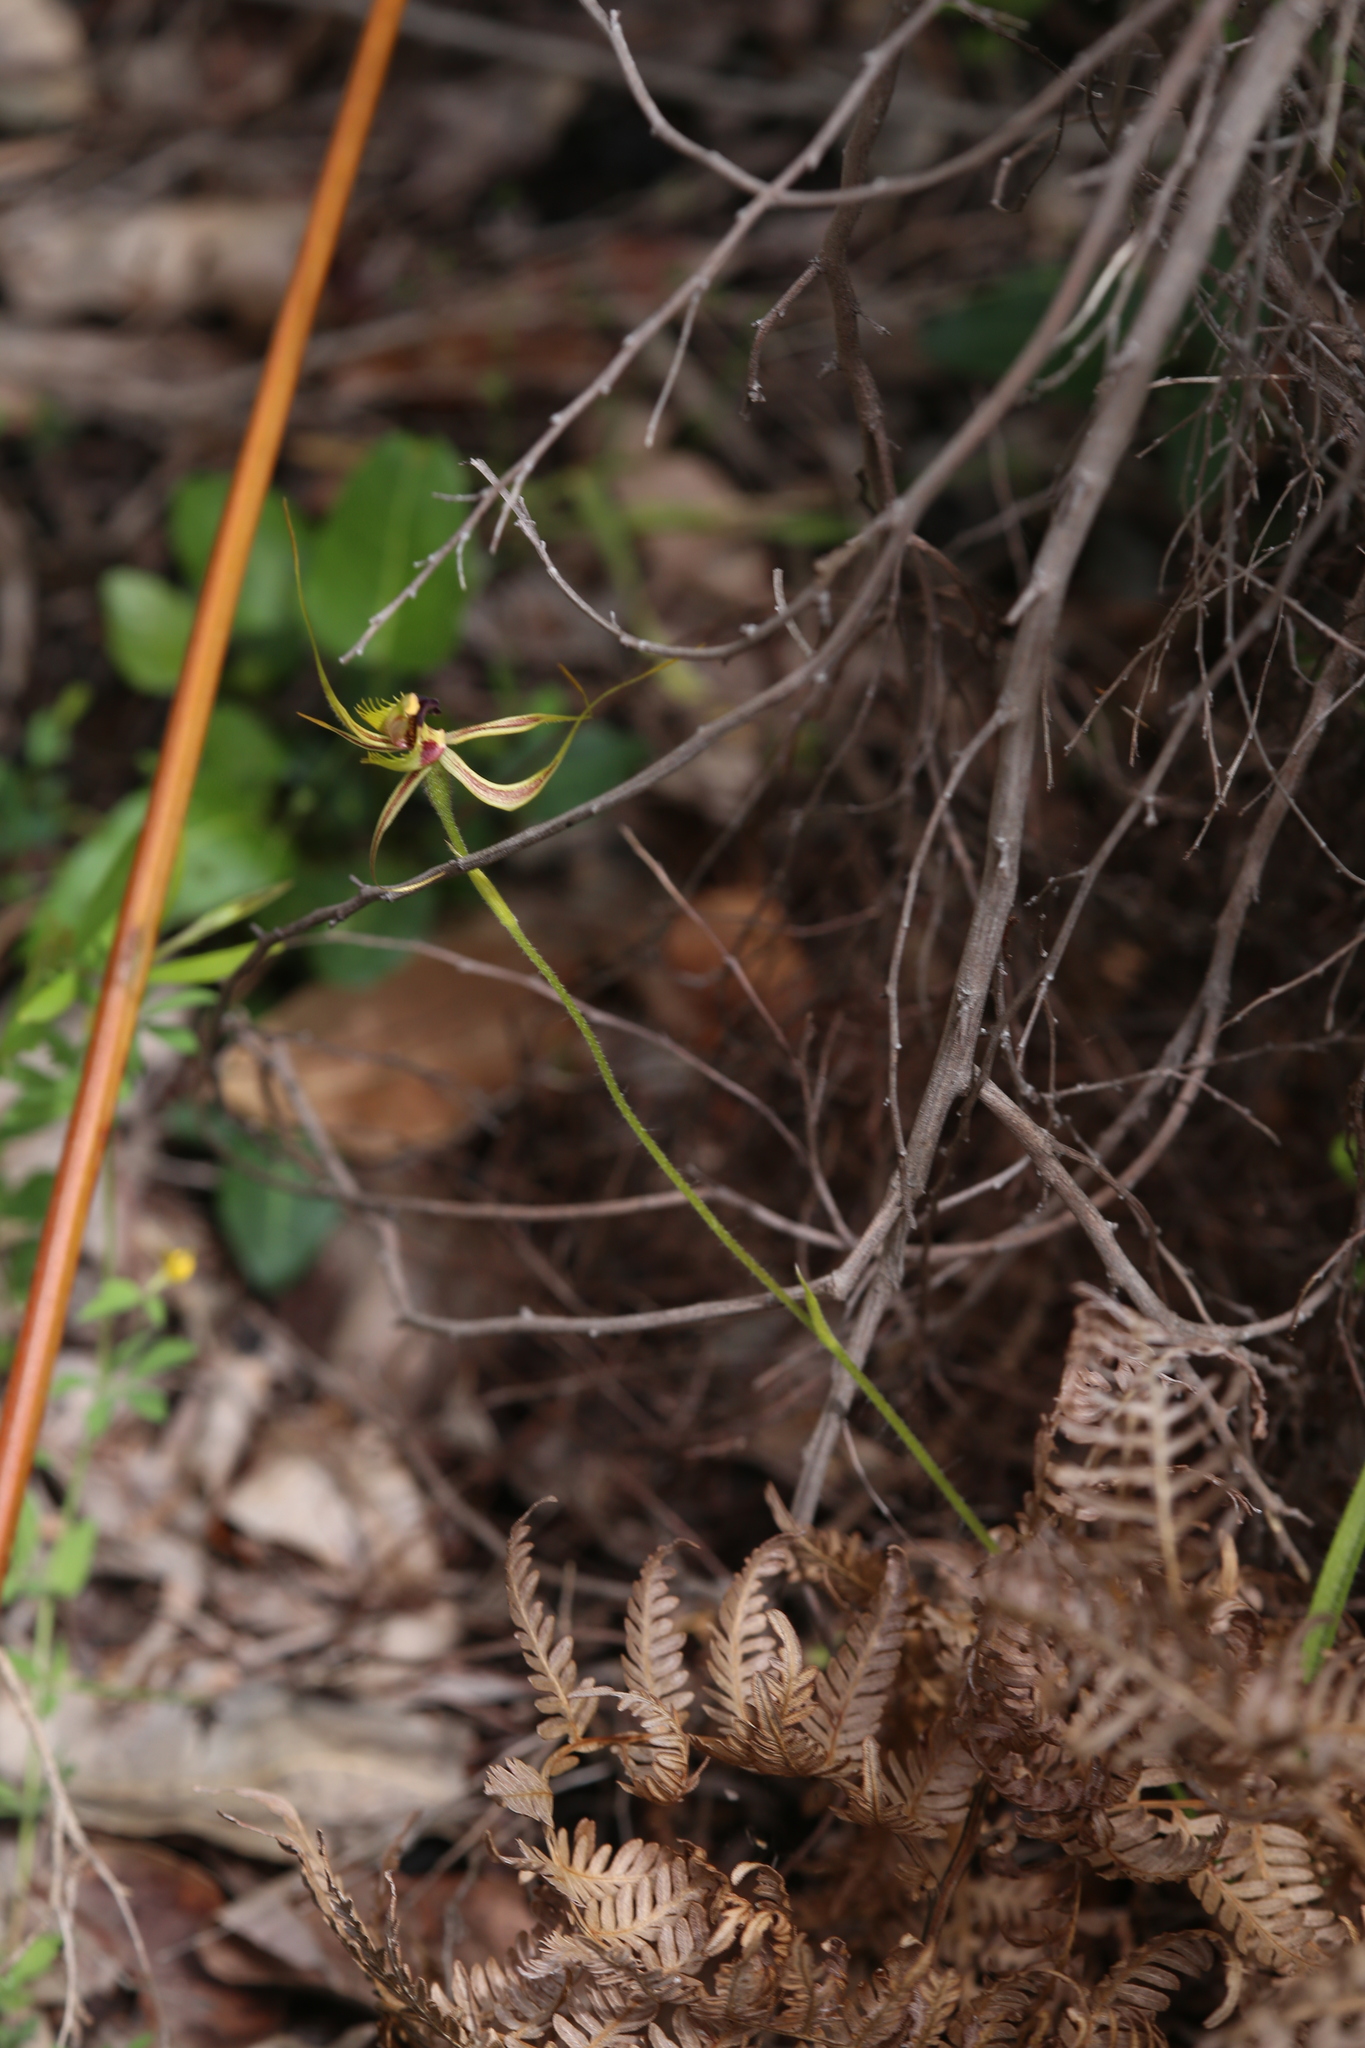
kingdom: Plantae
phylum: Tracheophyta
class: Liliopsida
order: Asparagales
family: Orchidaceae
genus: Caladenia
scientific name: Caladenia attingens
